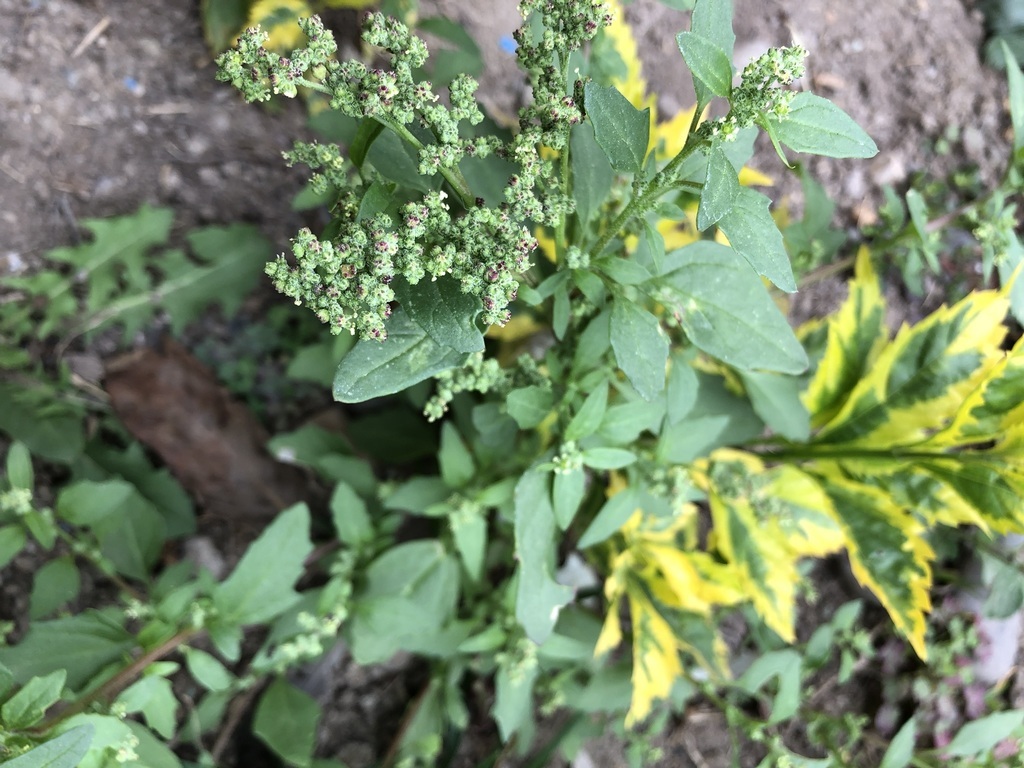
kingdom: Plantae
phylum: Tracheophyta
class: Magnoliopsida
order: Caryophyllales
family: Amaranthaceae
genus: Chenopodium
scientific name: Chenopodium album
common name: Fat-hen
